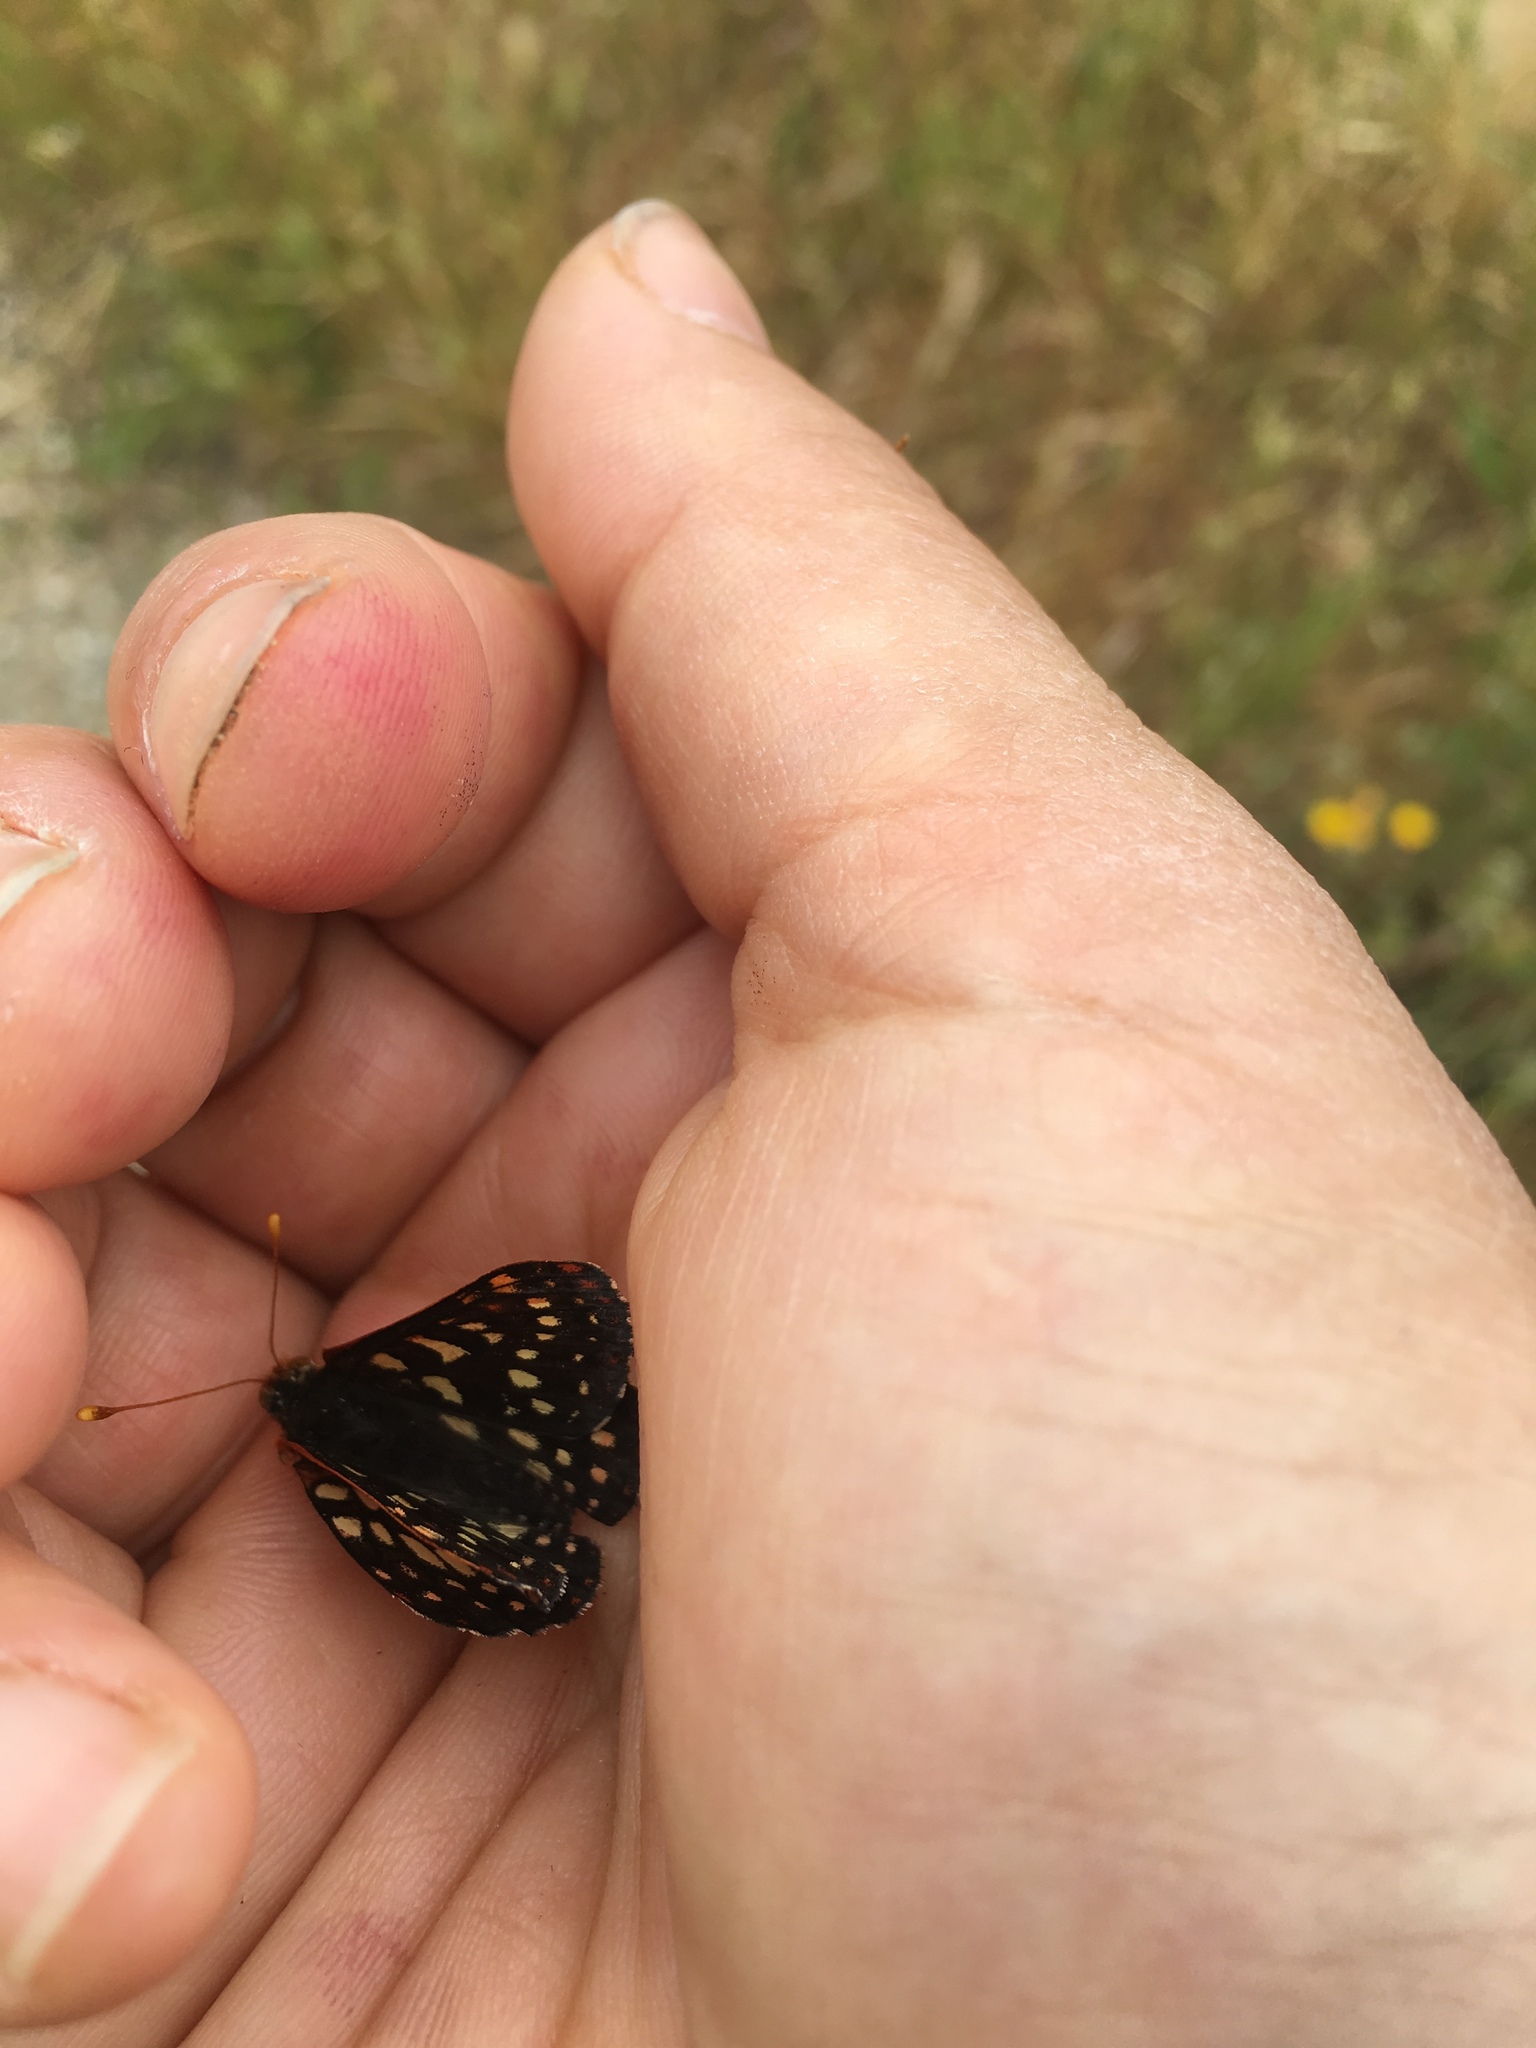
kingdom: Animalia
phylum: Arthropoda
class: Insecta
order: Lepidoptera
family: Nymphalidae
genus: Occidryas
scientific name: Occidryas chalcedona
